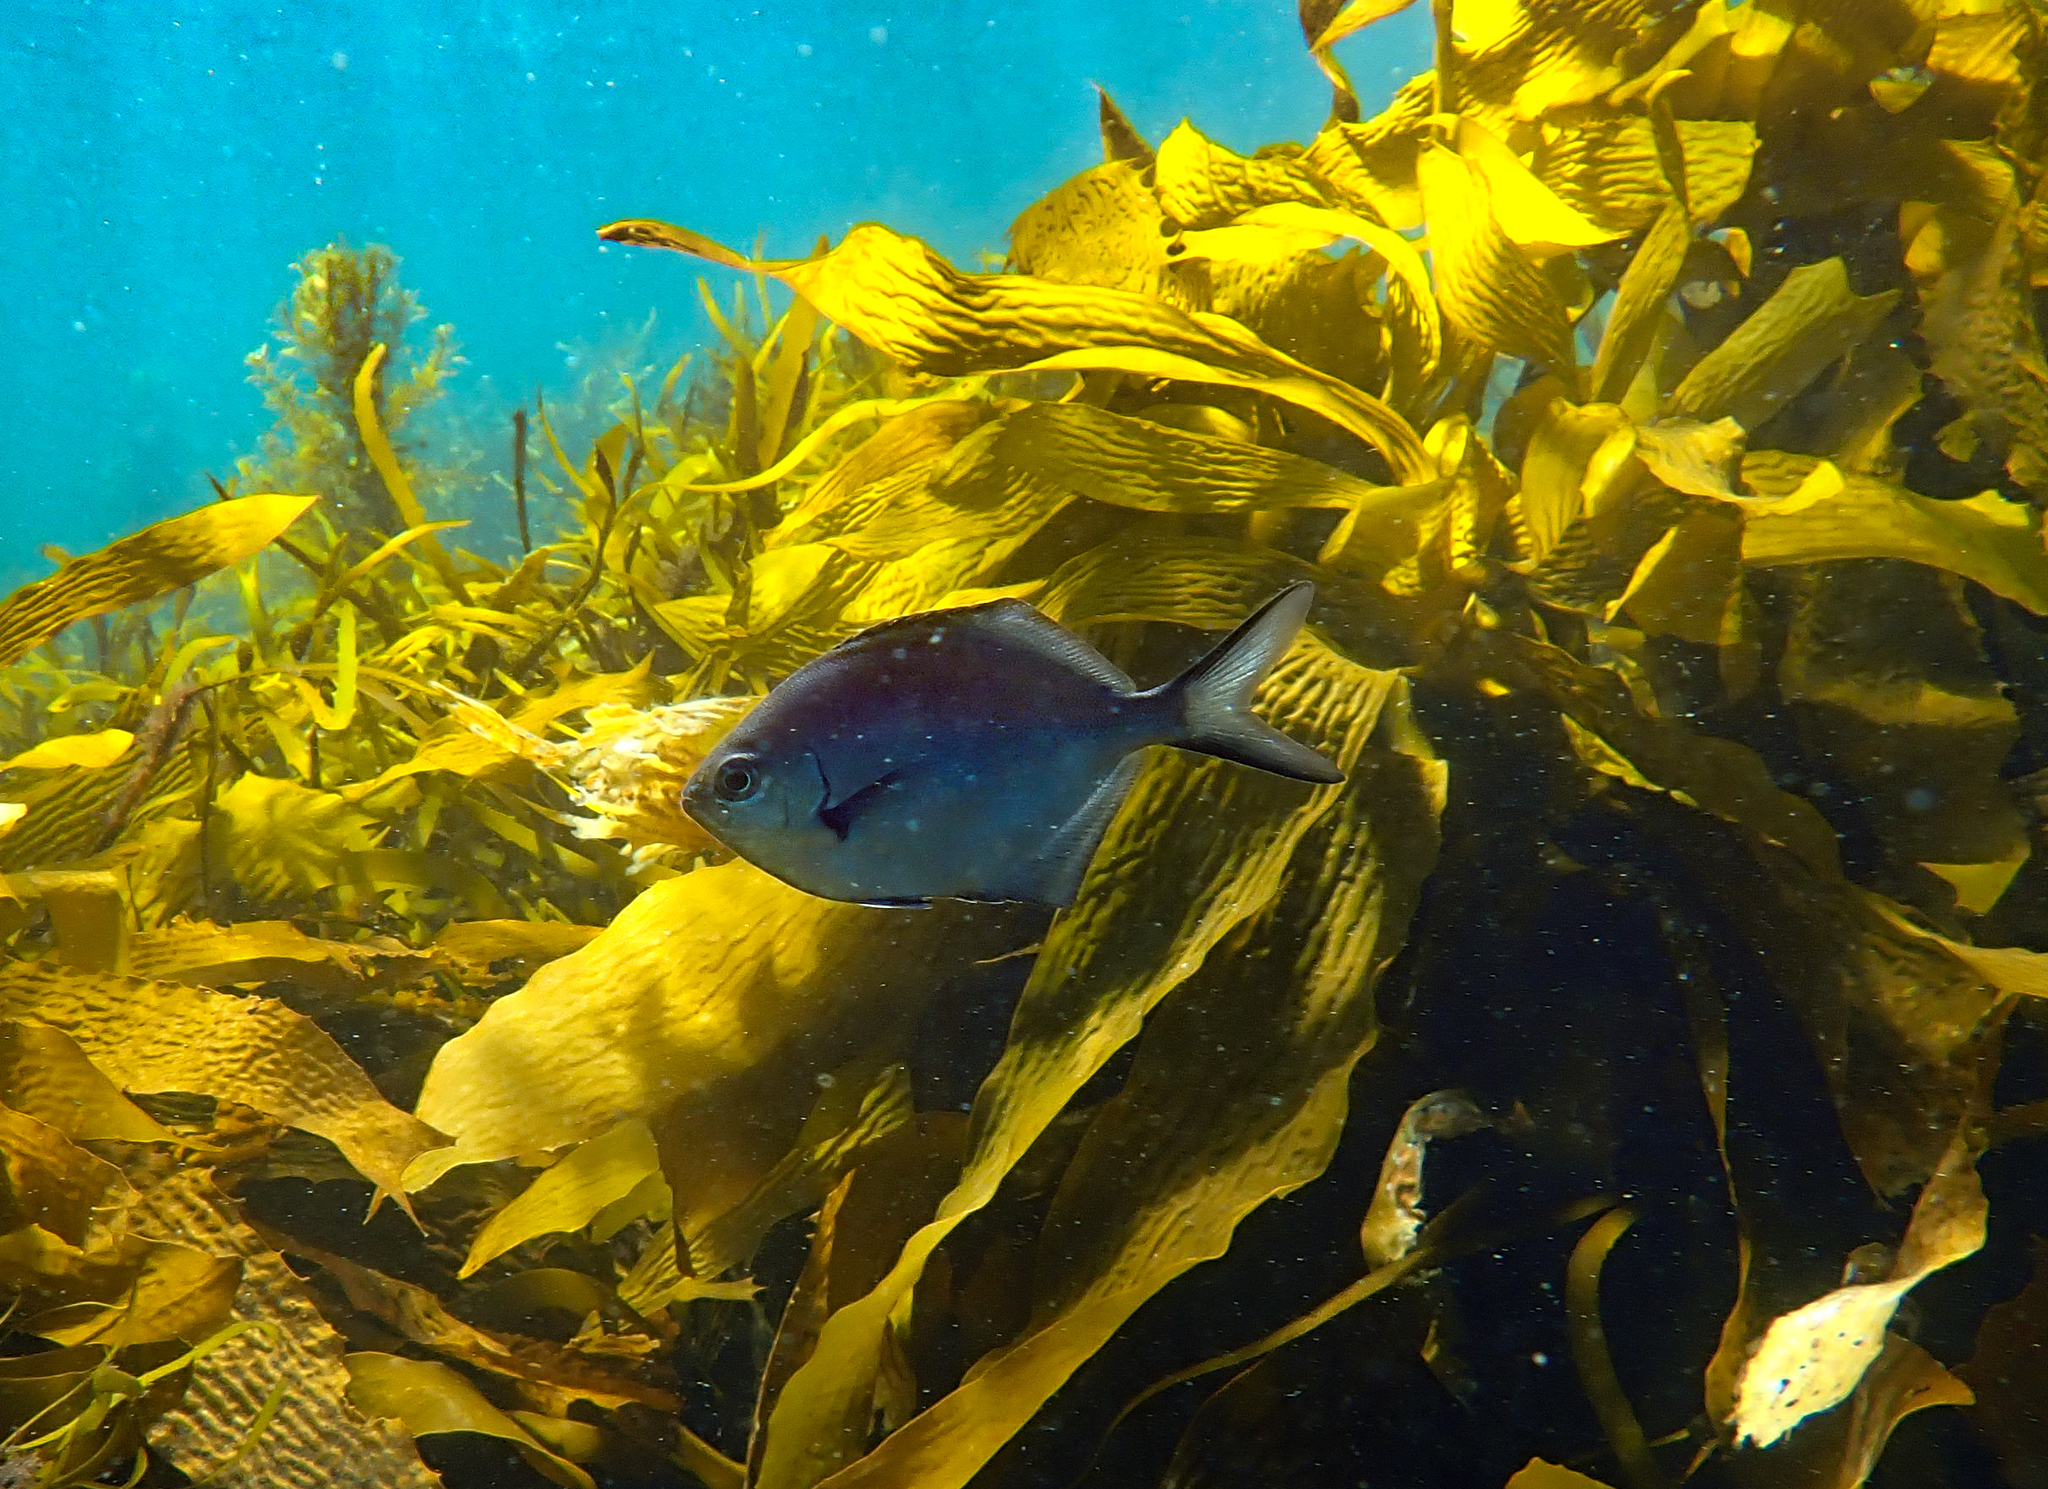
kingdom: Animalia
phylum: Chordata
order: Perciformes
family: Kyphosidae
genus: Scorpis
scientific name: Scorpis lineolata
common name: Sweep
